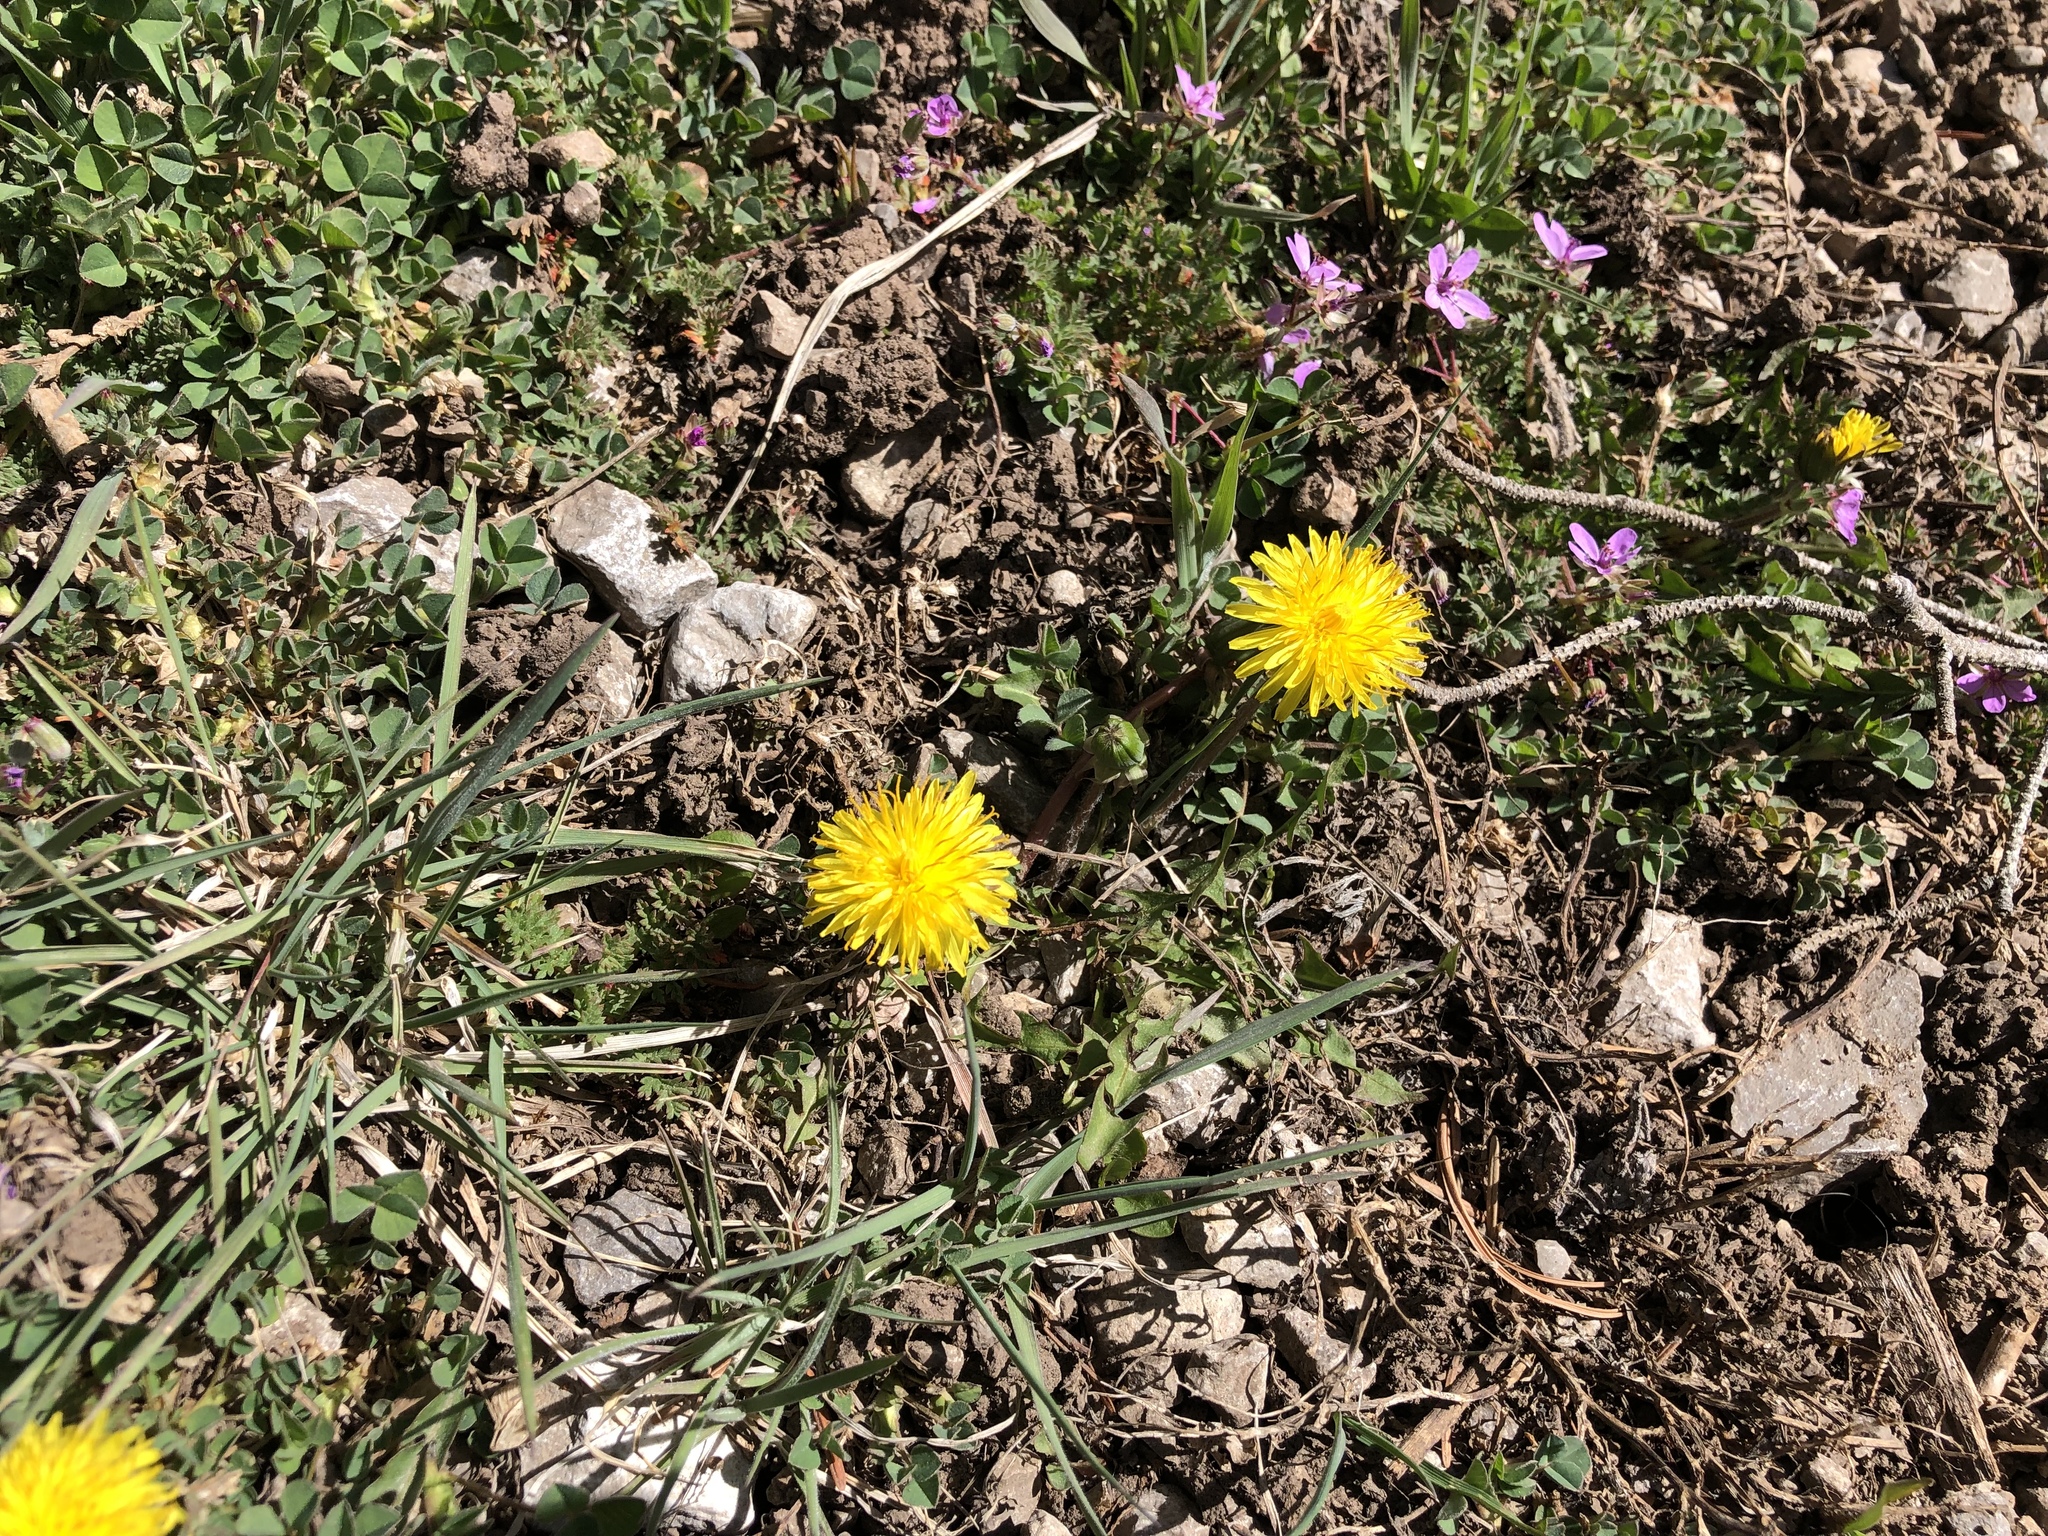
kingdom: Plantae
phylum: Tracheophyta
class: Magnoliopsida
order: Asterales
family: Asteraceae
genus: Taraxacum
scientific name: Taraxacum officinale
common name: Common dandelion
